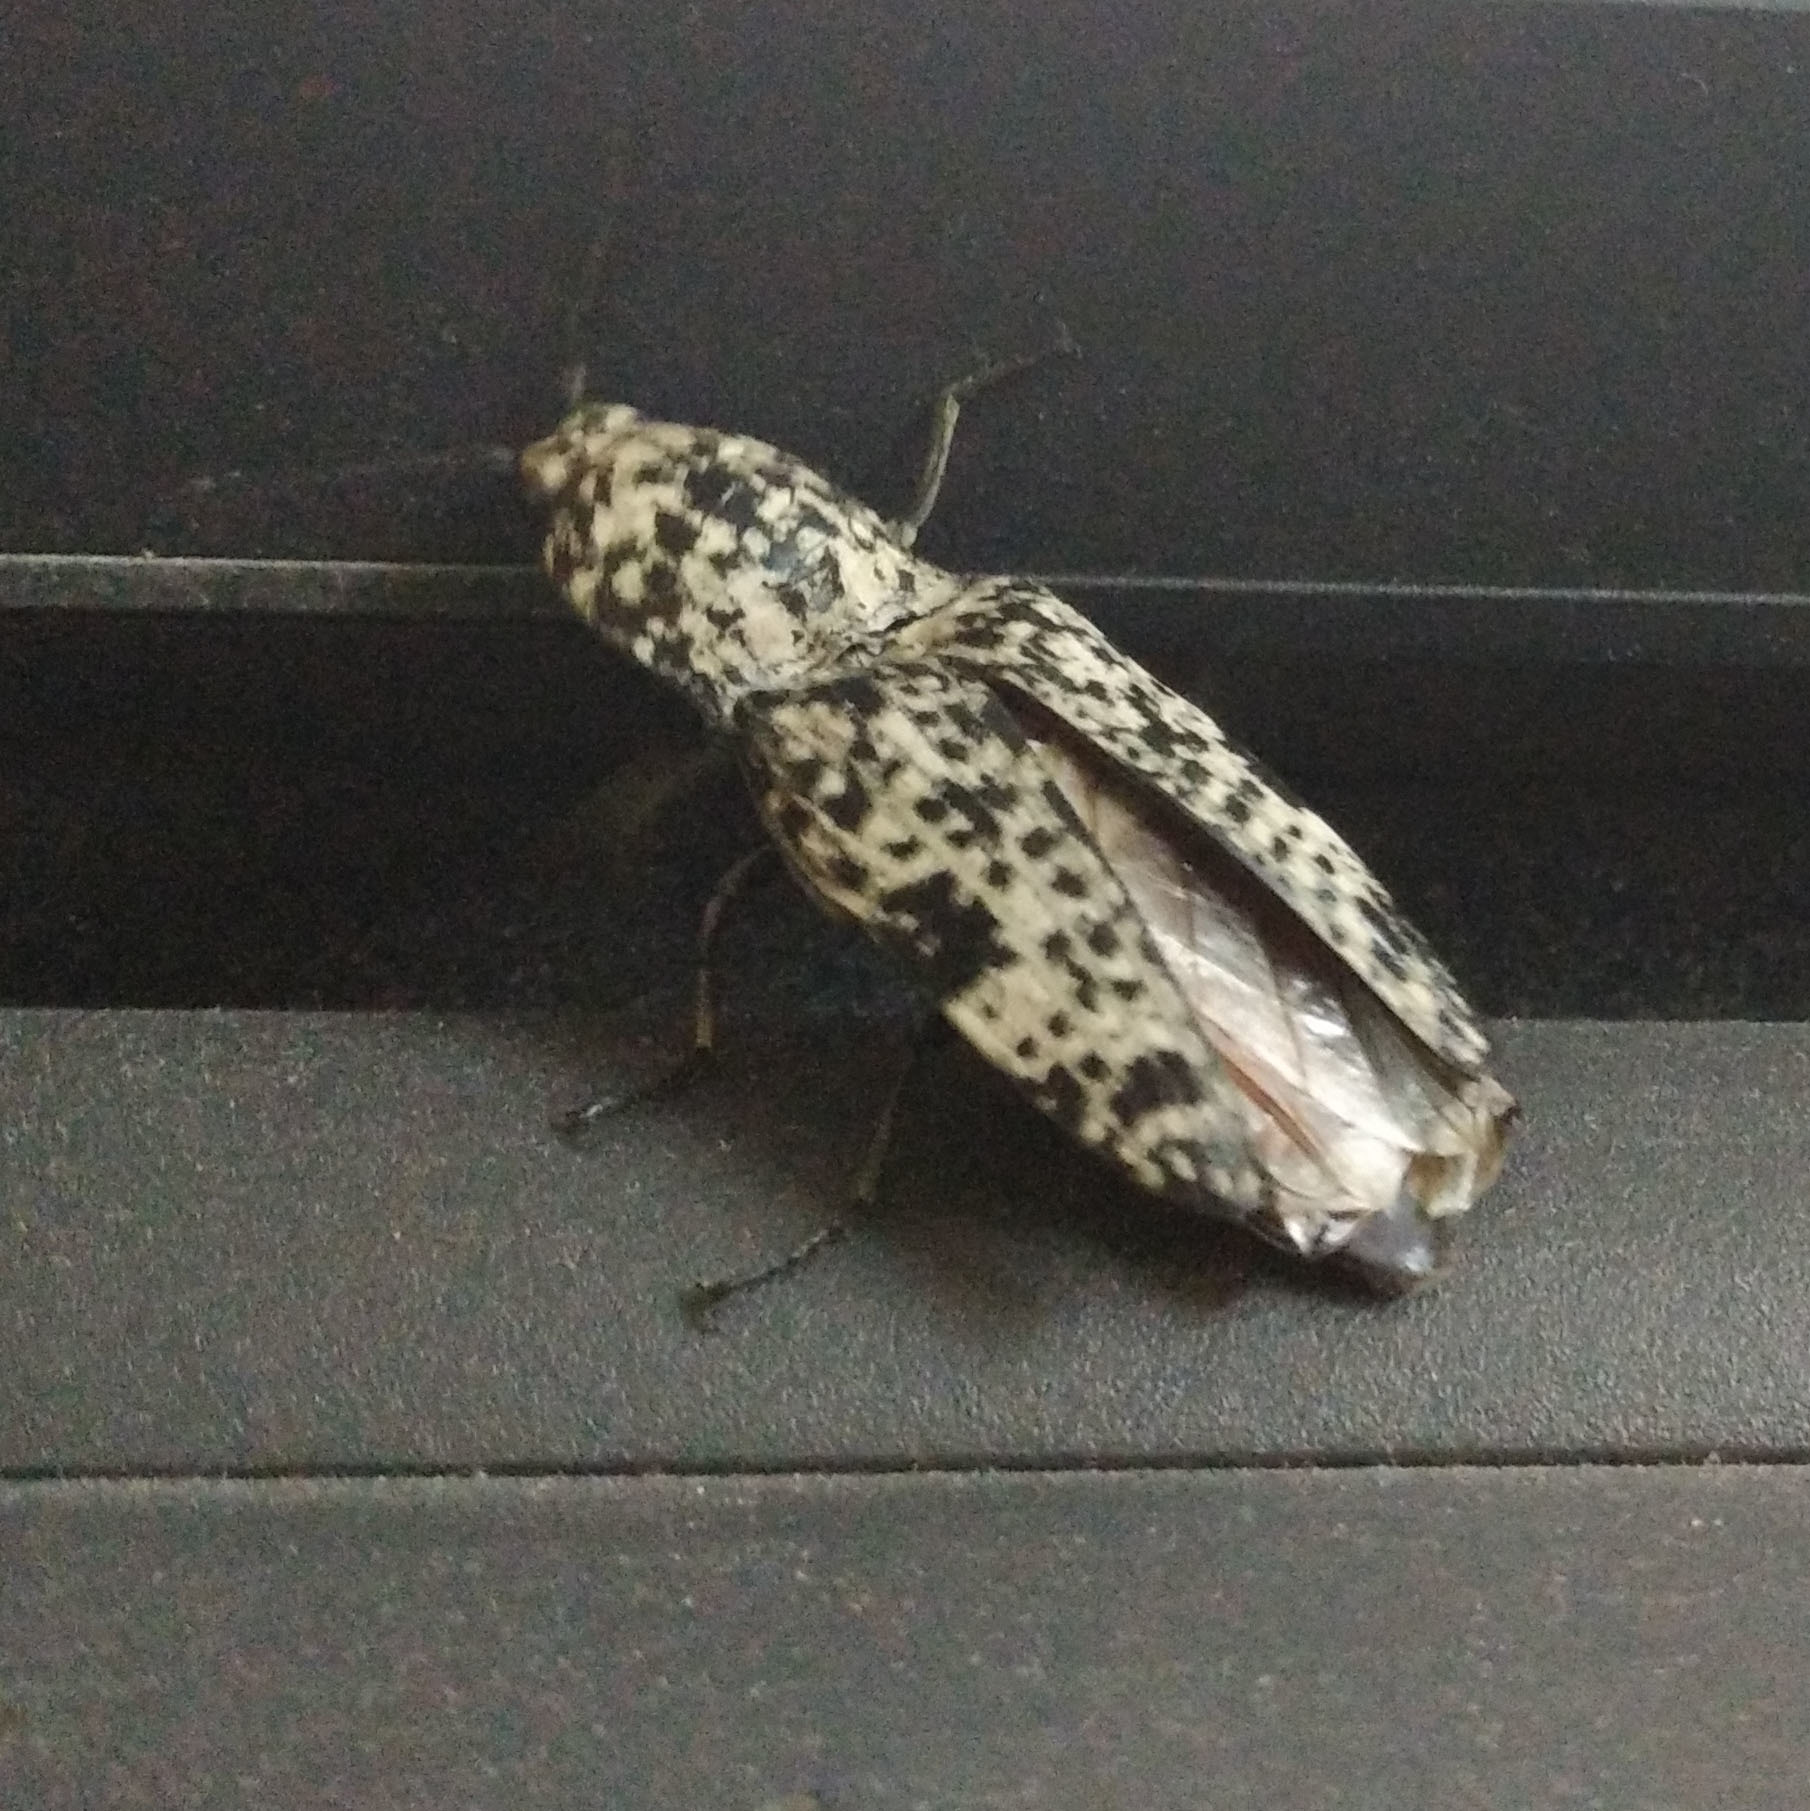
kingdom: Animalia
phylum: Arthropoda
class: Insecta
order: Coleoptera
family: Elateridae
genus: Cryptalaus
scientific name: Cryptalaus
